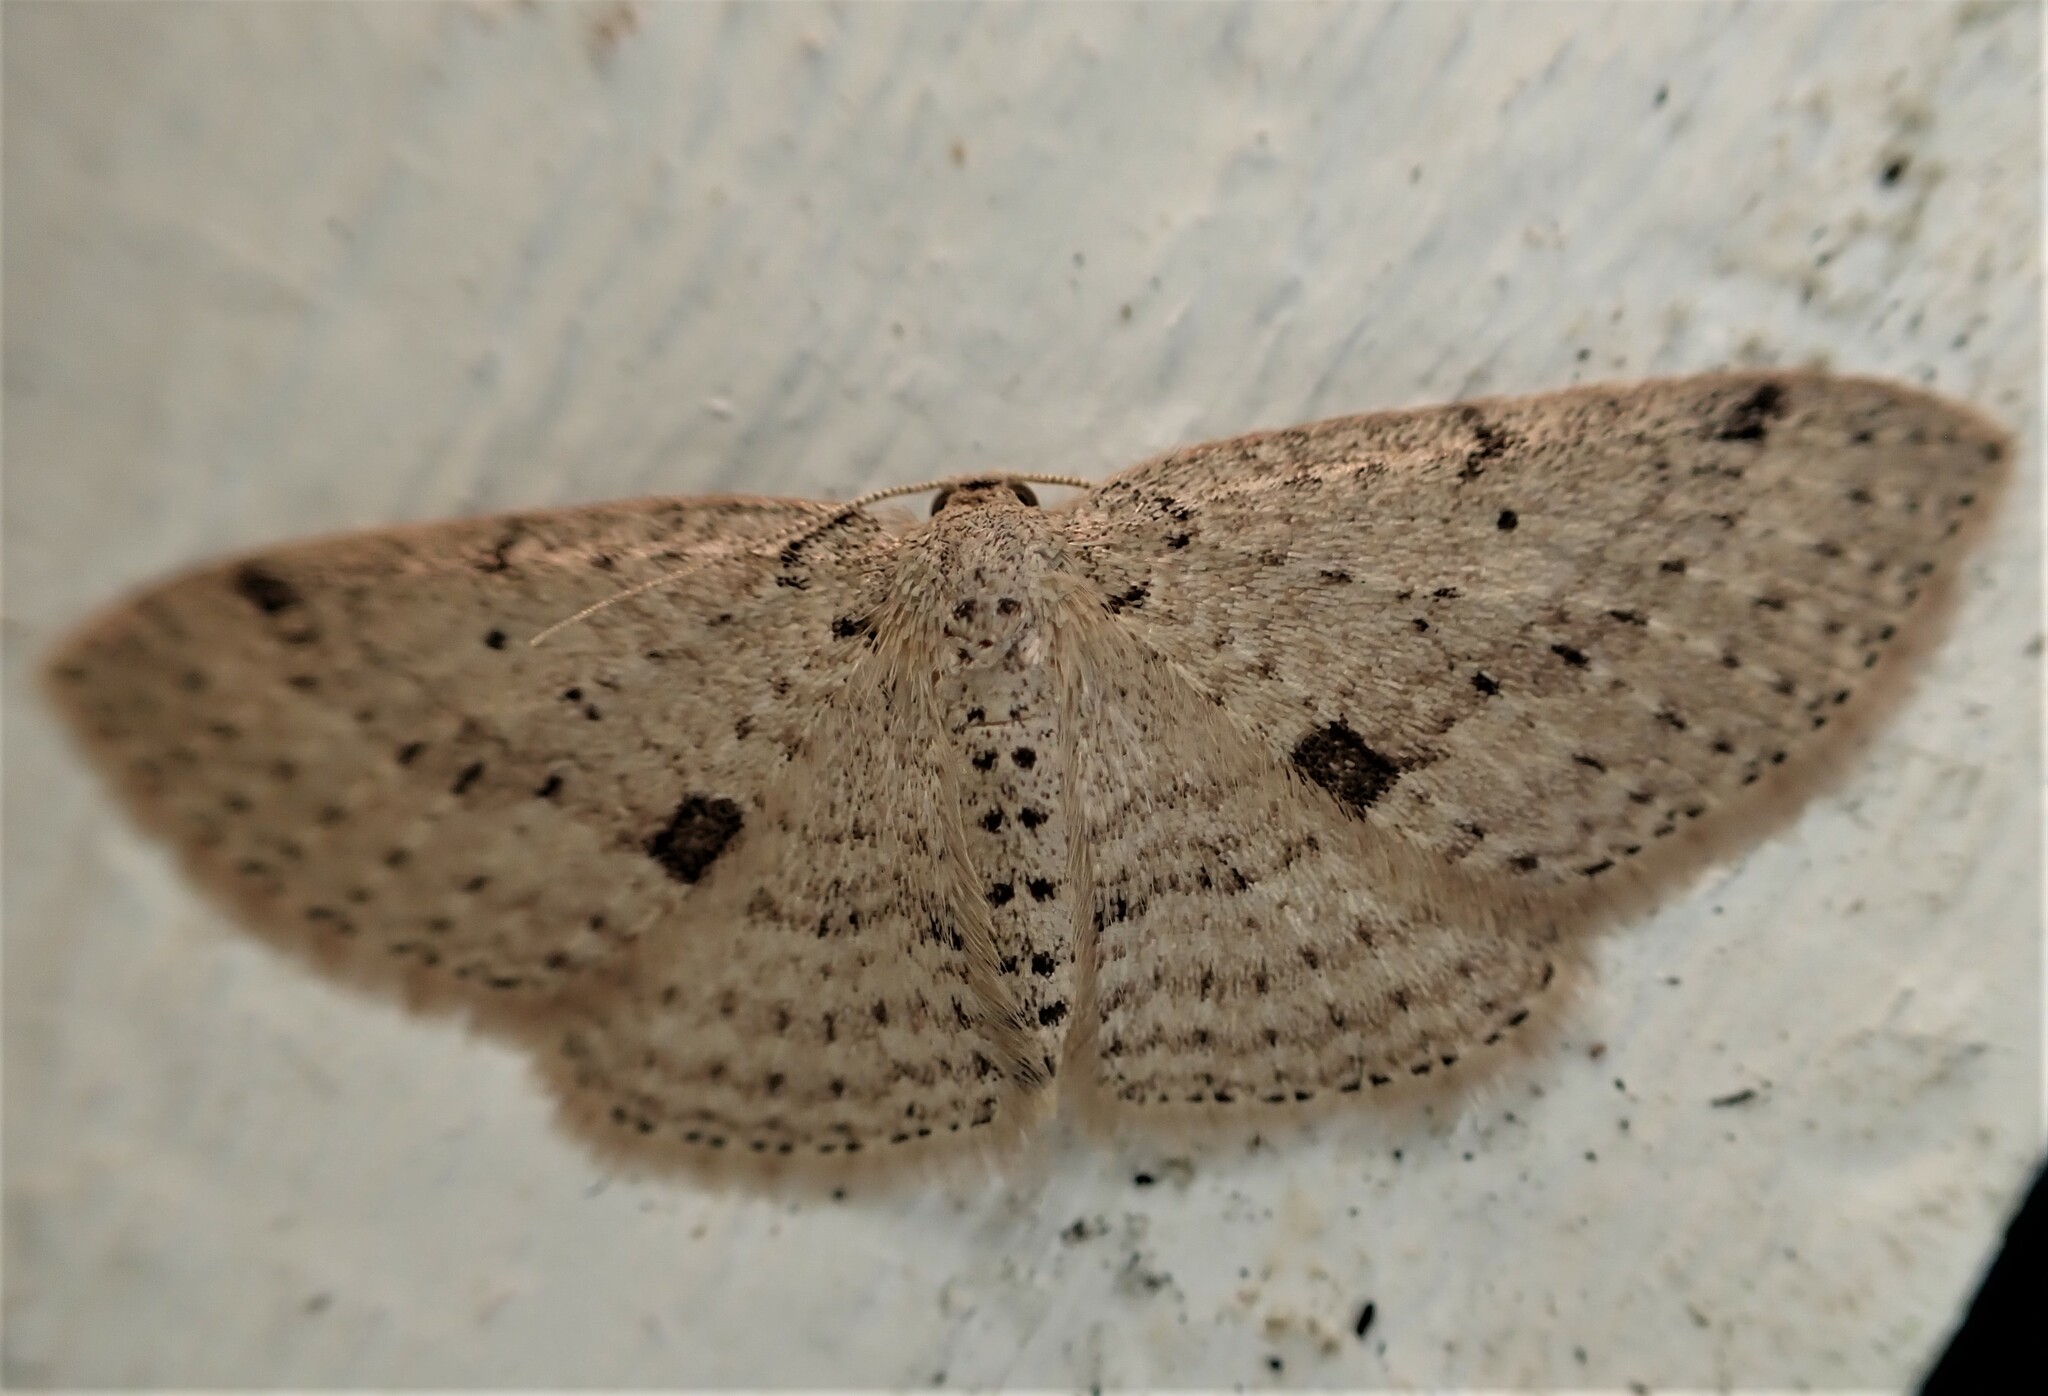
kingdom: Animalia
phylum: Arthropoda
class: Insecta
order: Lepidoptera
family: Geometridae
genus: Poecilasthena
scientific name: Poecilasthena schistaria
